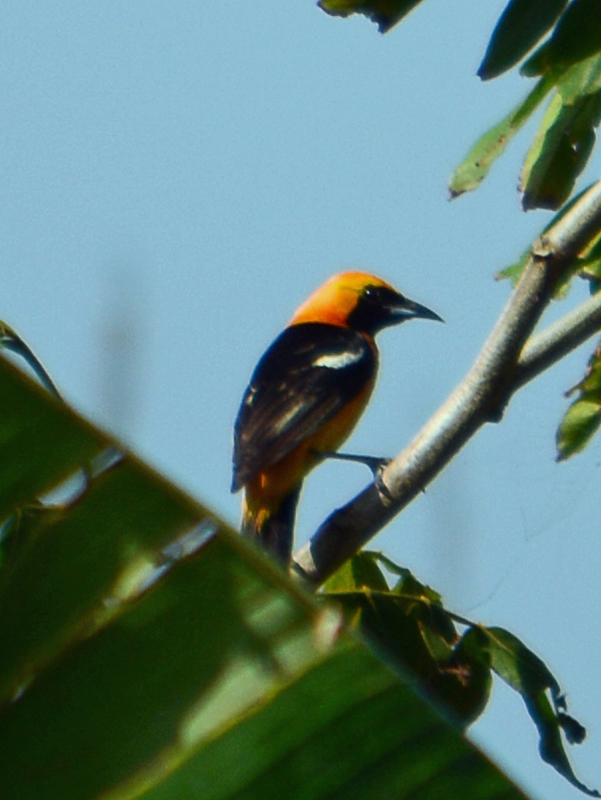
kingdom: Animalia
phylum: Chordata
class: Aves
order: Passeriformes
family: Icteridae
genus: Icterus
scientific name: Icterus cucullatus
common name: Hooded oriole
